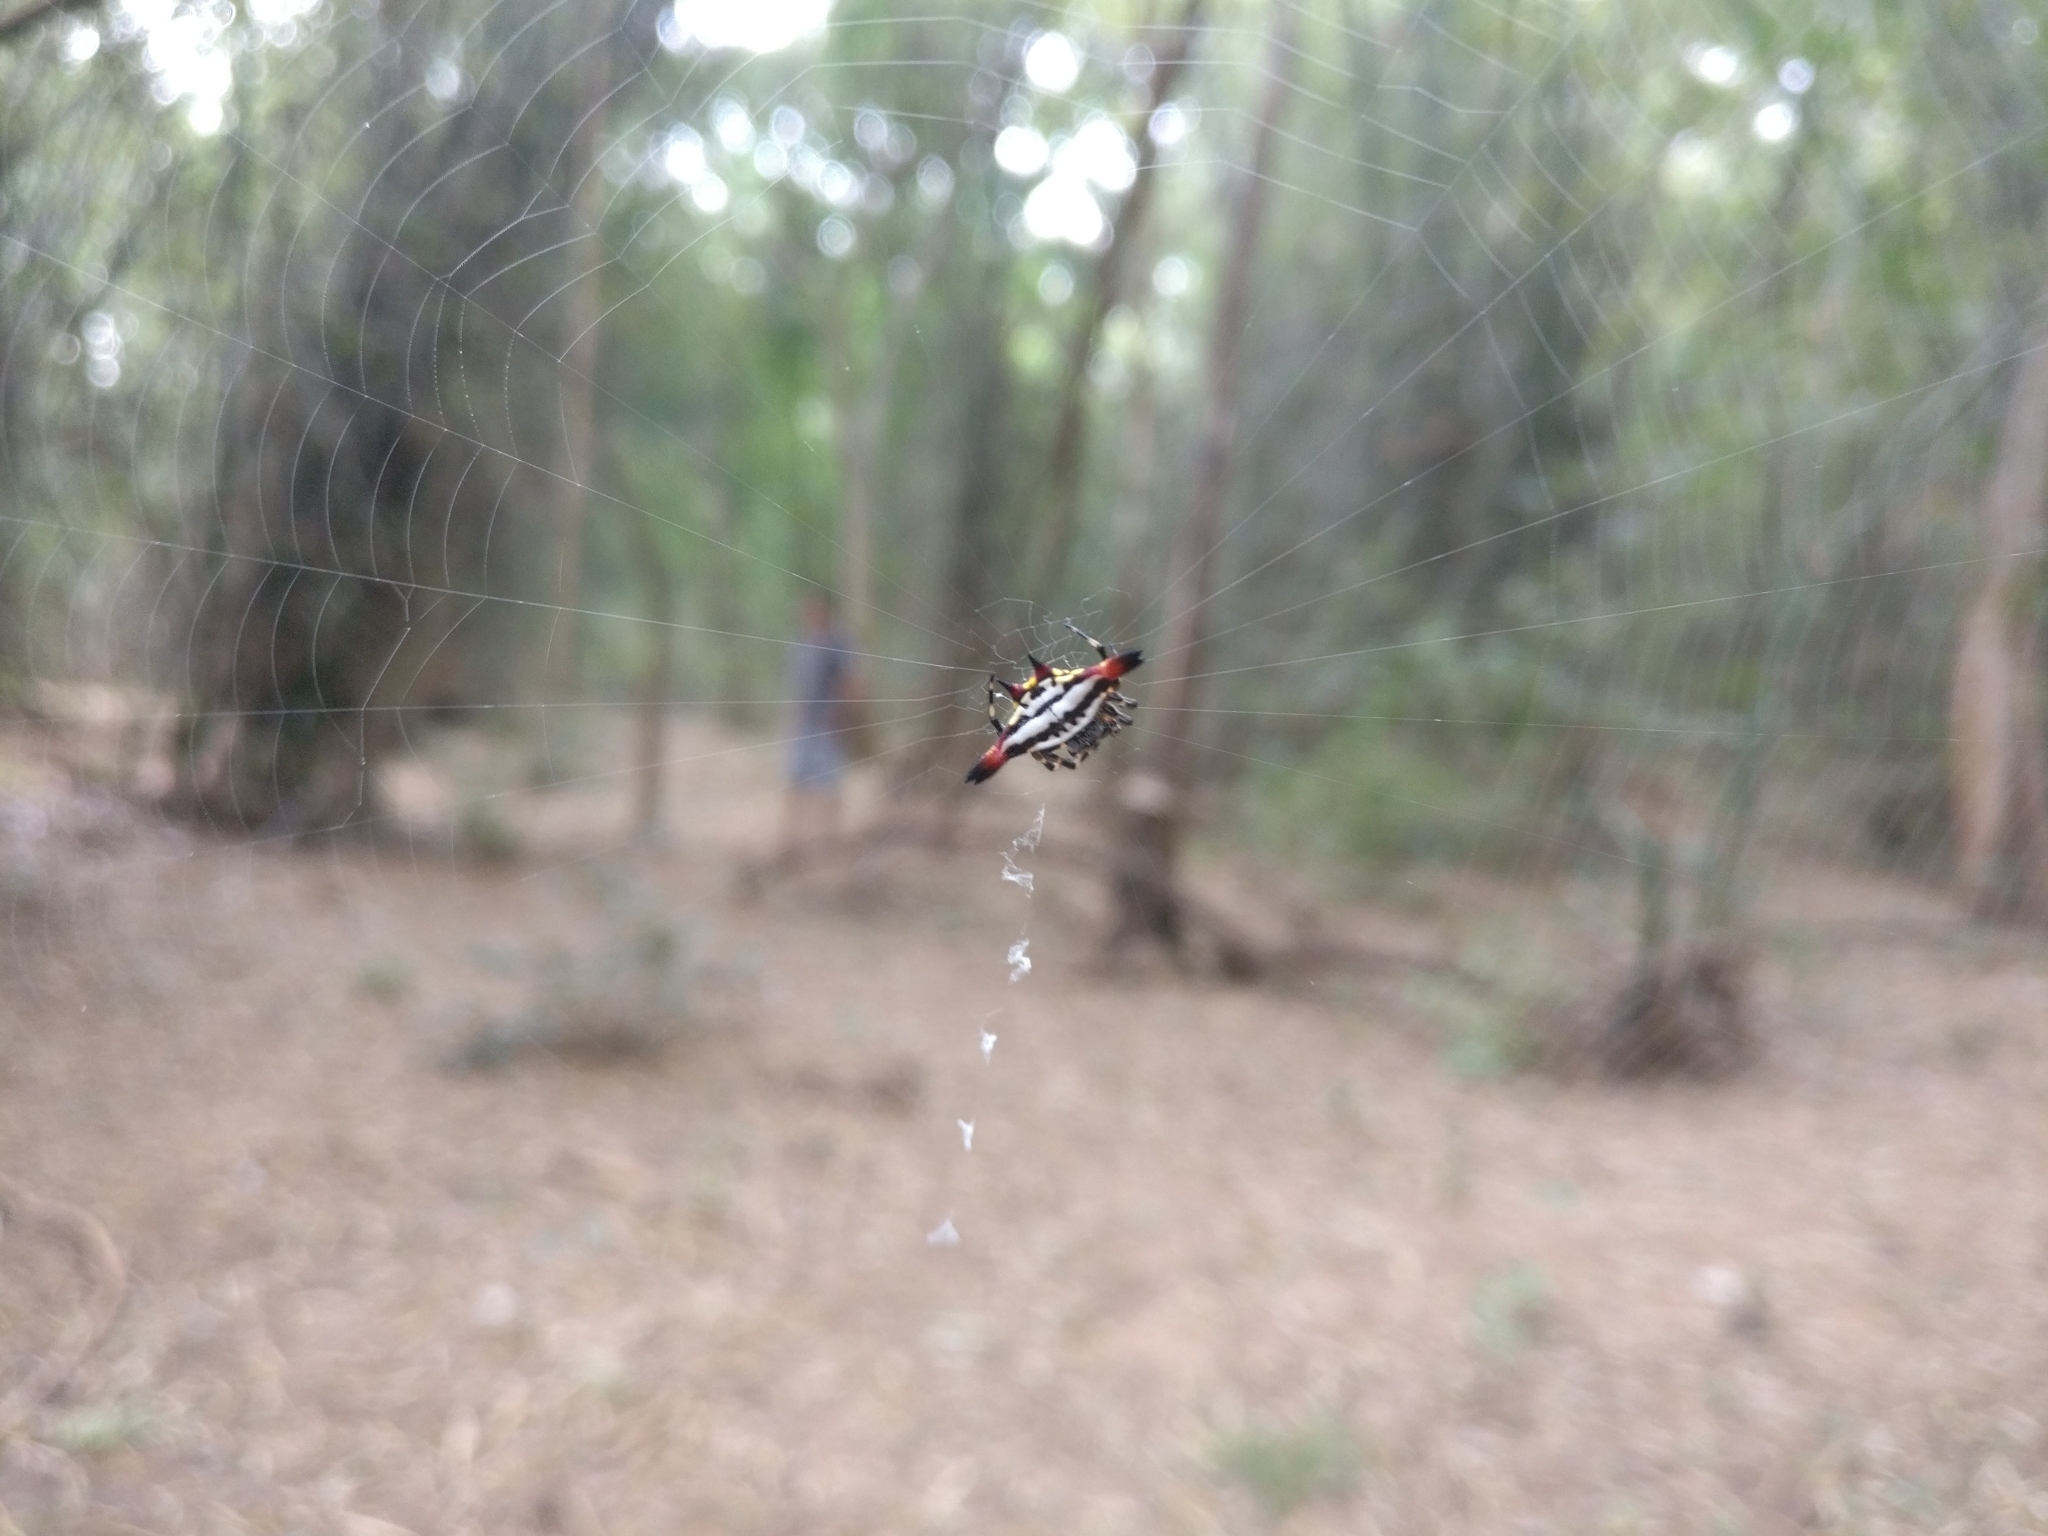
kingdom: Animalia
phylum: Arthropoda
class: Arachnida
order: Araneae
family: Araneidae
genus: Gasteracantha
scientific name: Gasteracantha geminata
